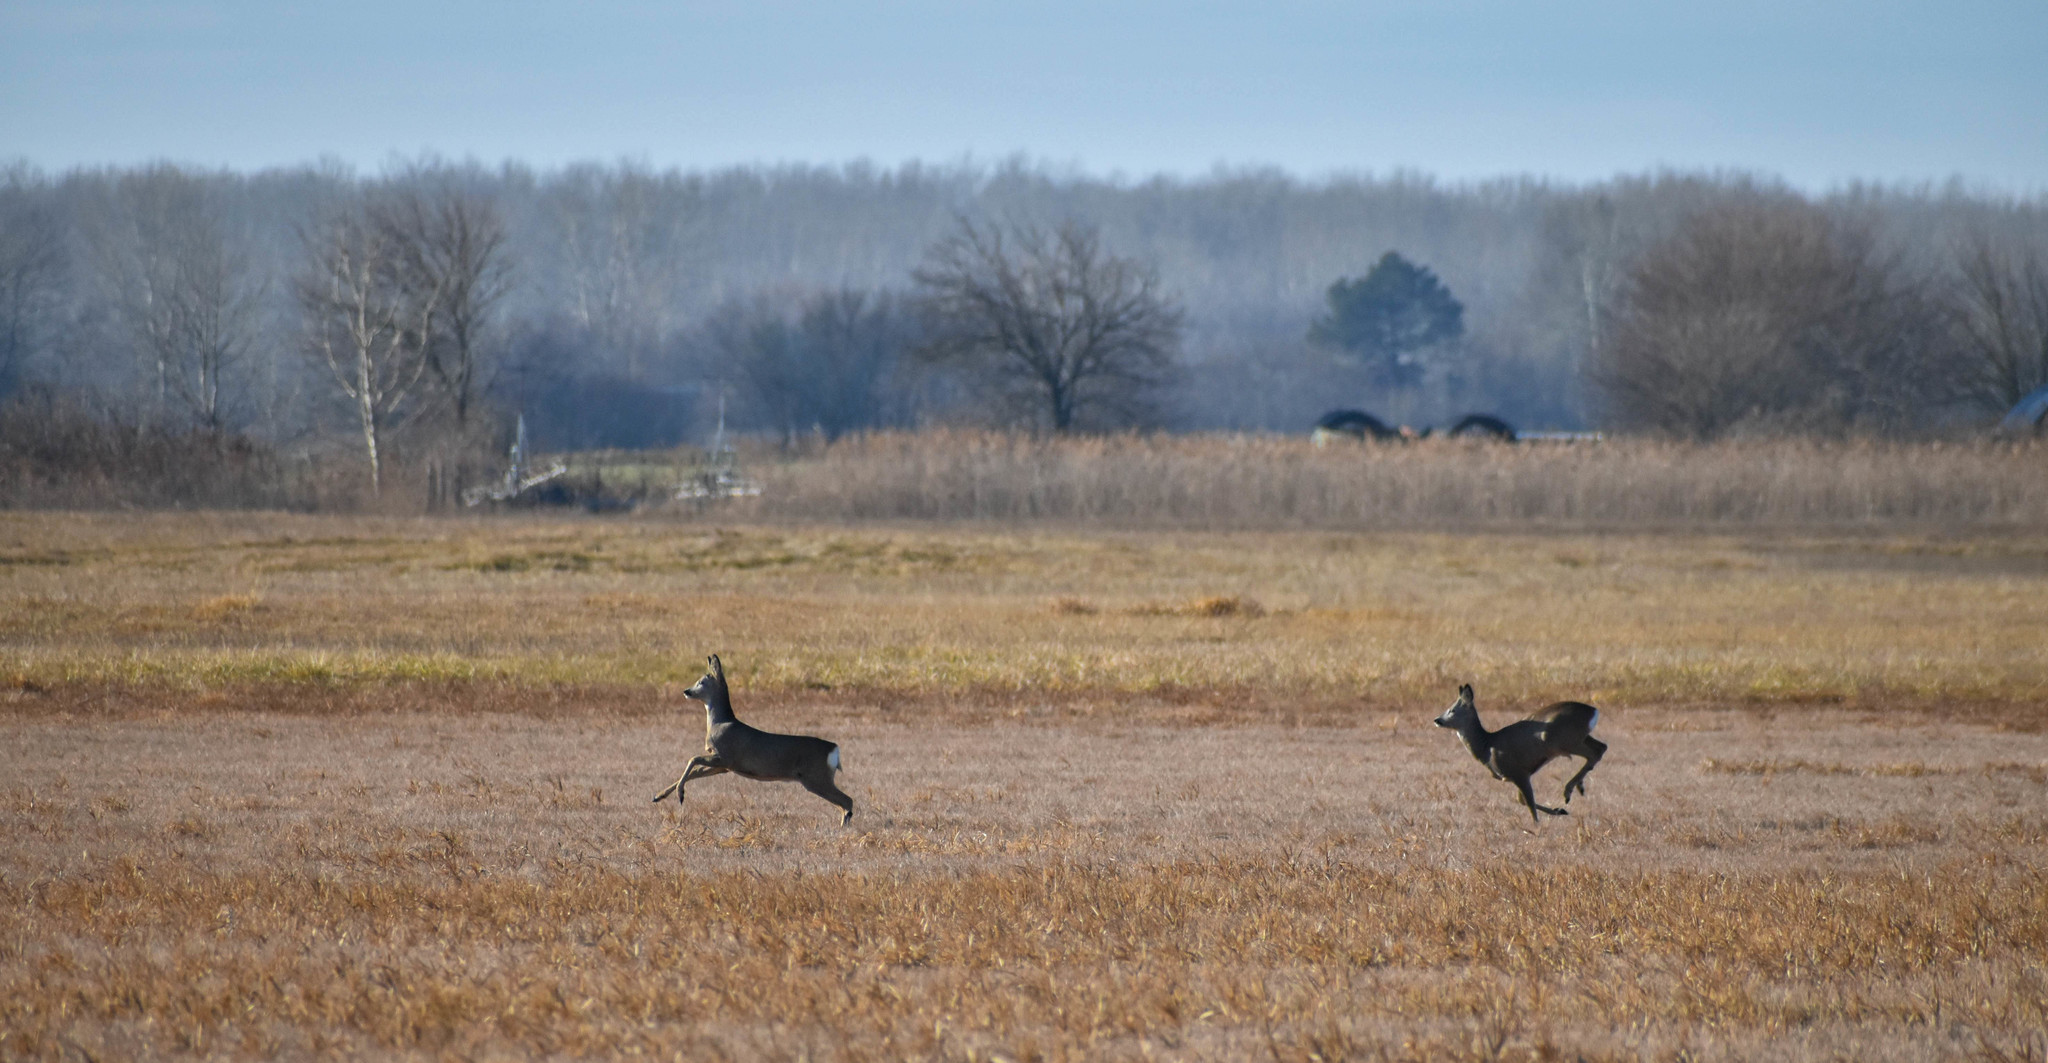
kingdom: Animalia
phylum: Chordata
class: Mammalia
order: Artiodactyla
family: Cervidae
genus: Capreolus
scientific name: Capreolus capreolus
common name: Western roe deer
